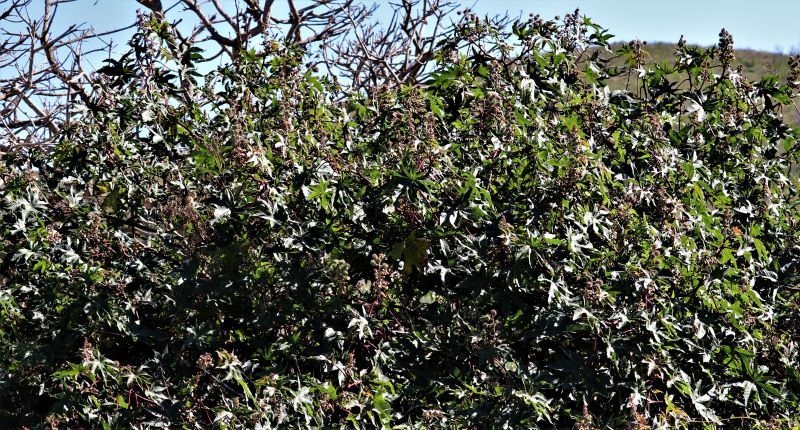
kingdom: Plantae
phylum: Tracheophyta
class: Magnoliopsida
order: Malpighiales
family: Euphorbiaceae
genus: Ricinus
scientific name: Ricinus communis
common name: Castor-oil-plant
